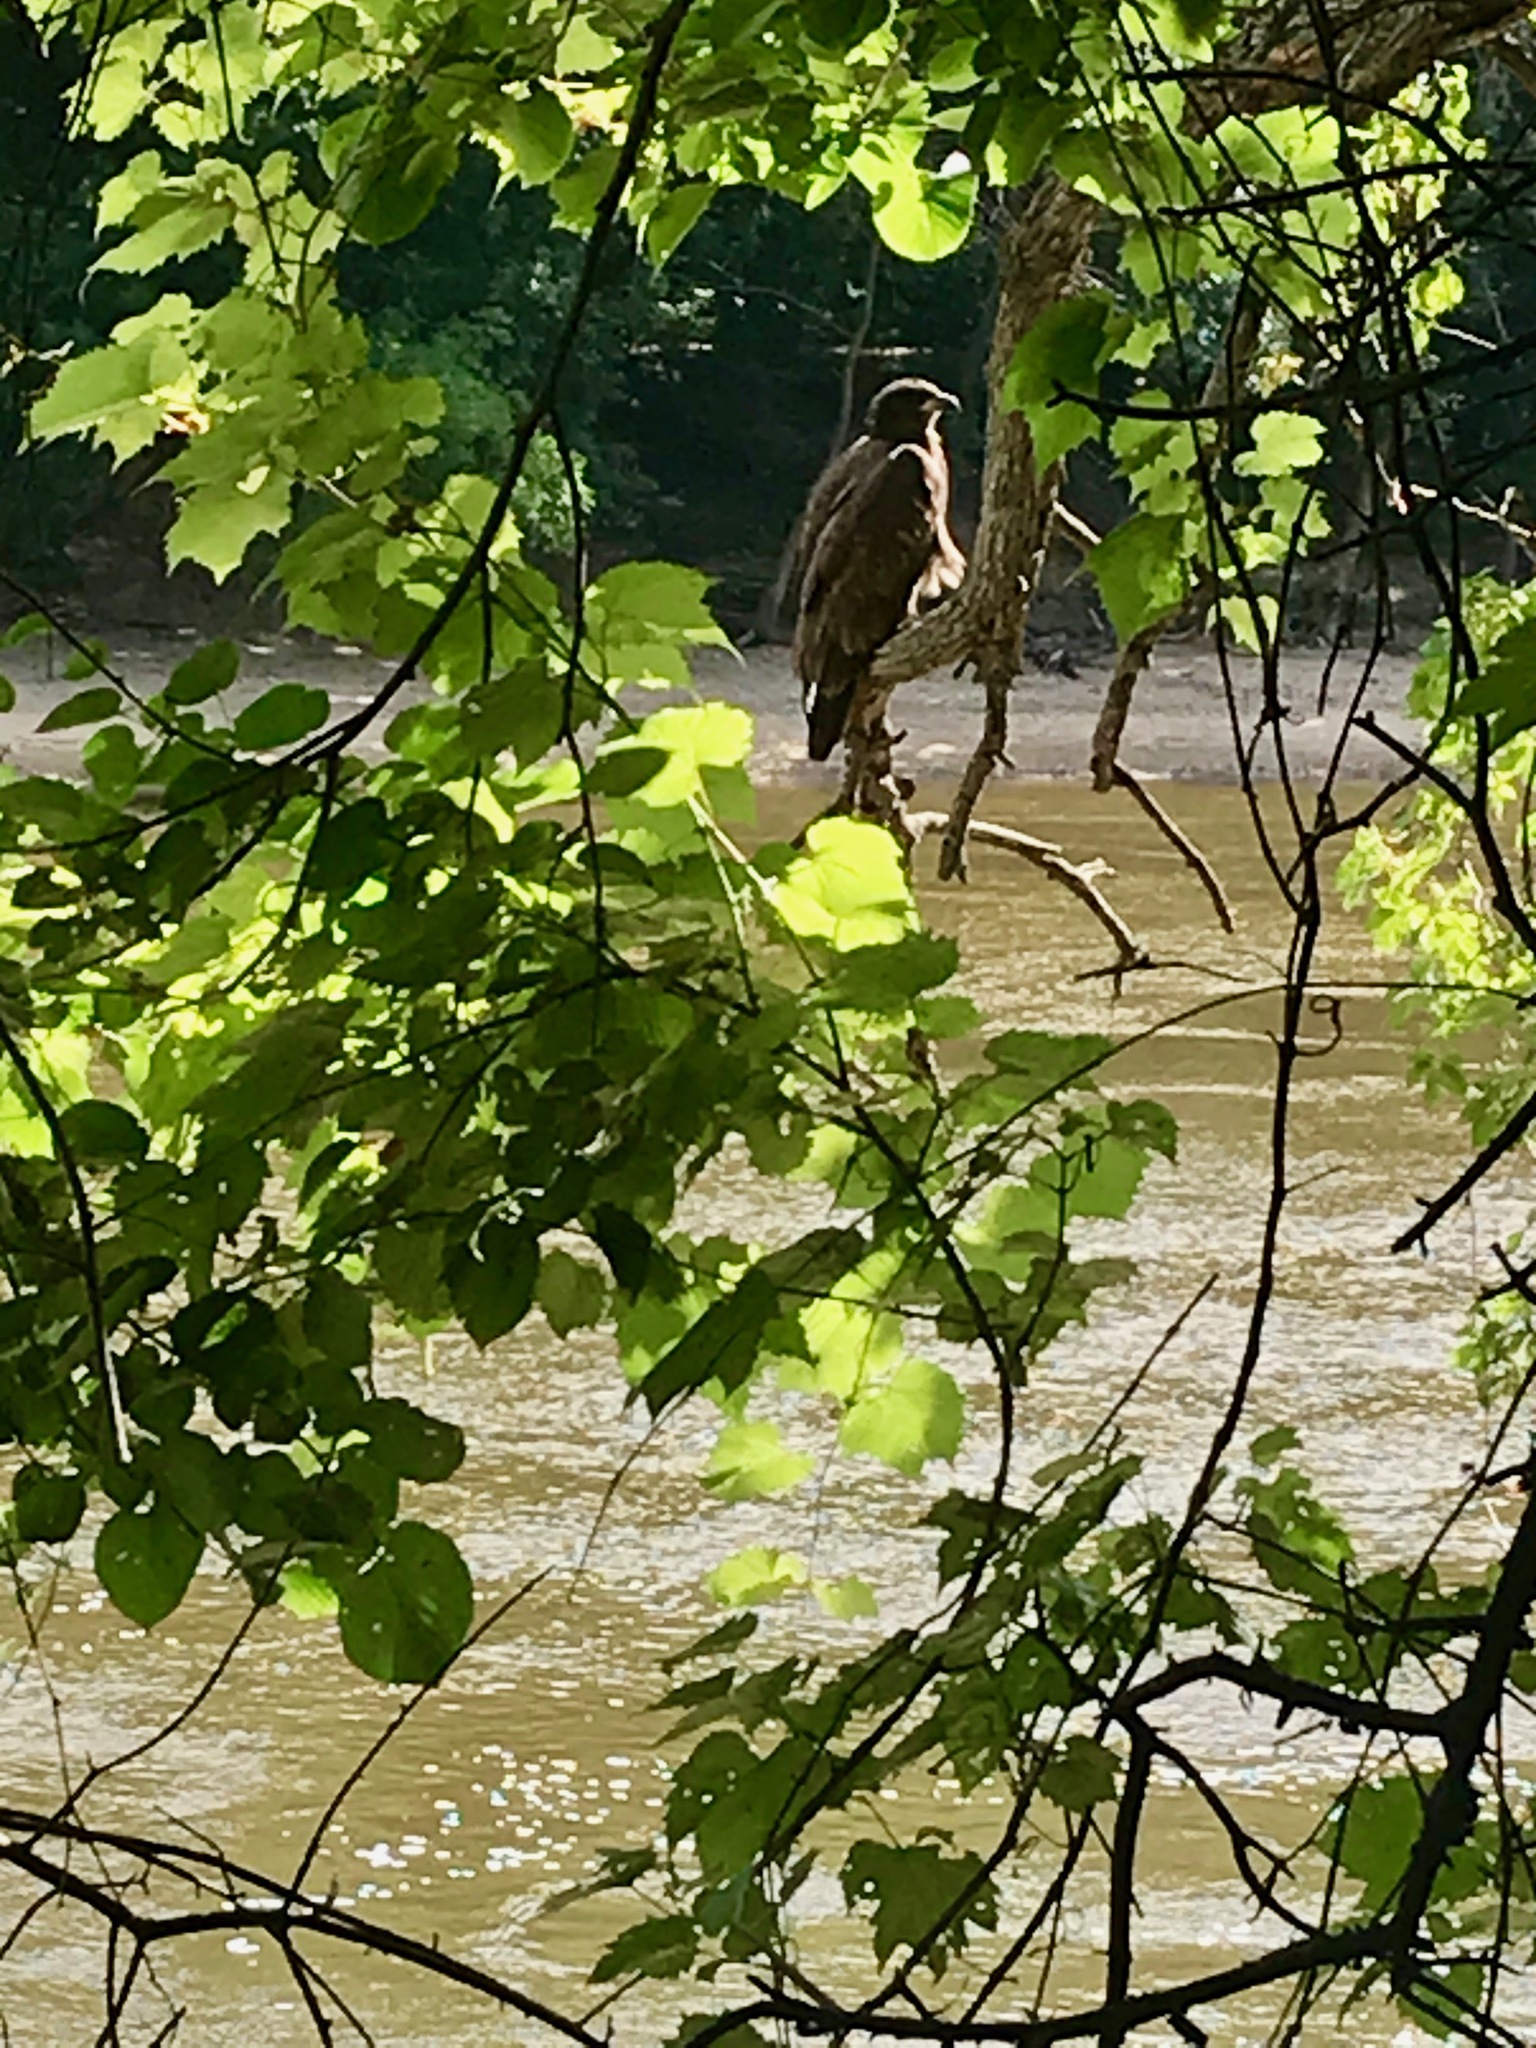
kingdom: Animalia
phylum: Chordata
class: Aves
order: Accipitriformes
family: Accipitridae
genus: Haliaeetus
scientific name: Haliaeetus leucocephalus
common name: Bald eagle
